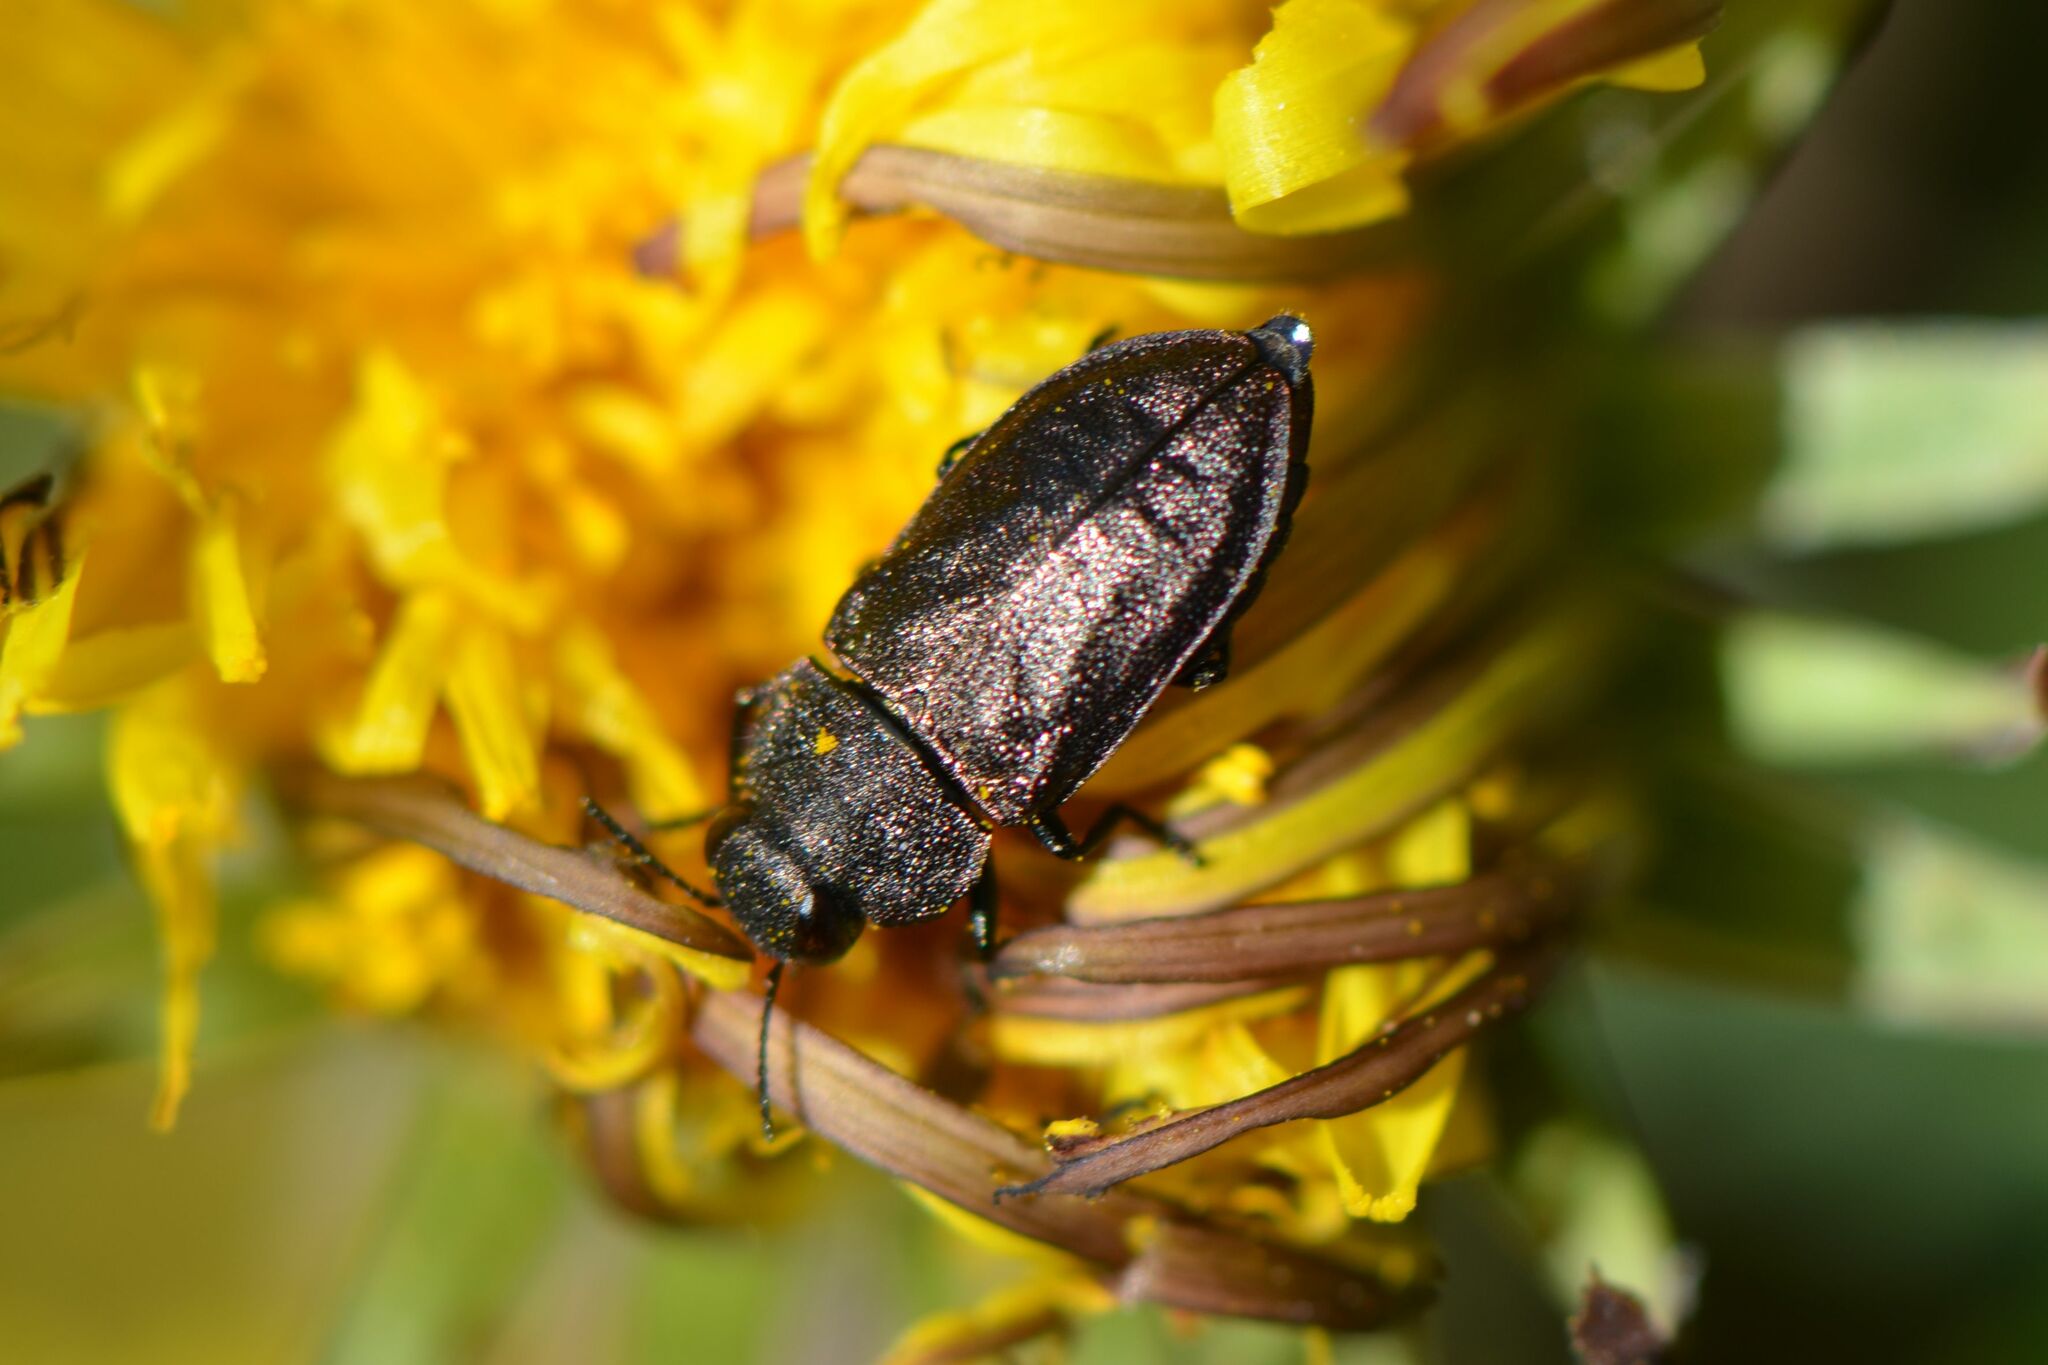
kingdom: Animalia
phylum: Arthropoda
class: Insecta
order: Coleoptera
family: Buprestidae
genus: Anthaxia
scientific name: Anthaxia helvetica
